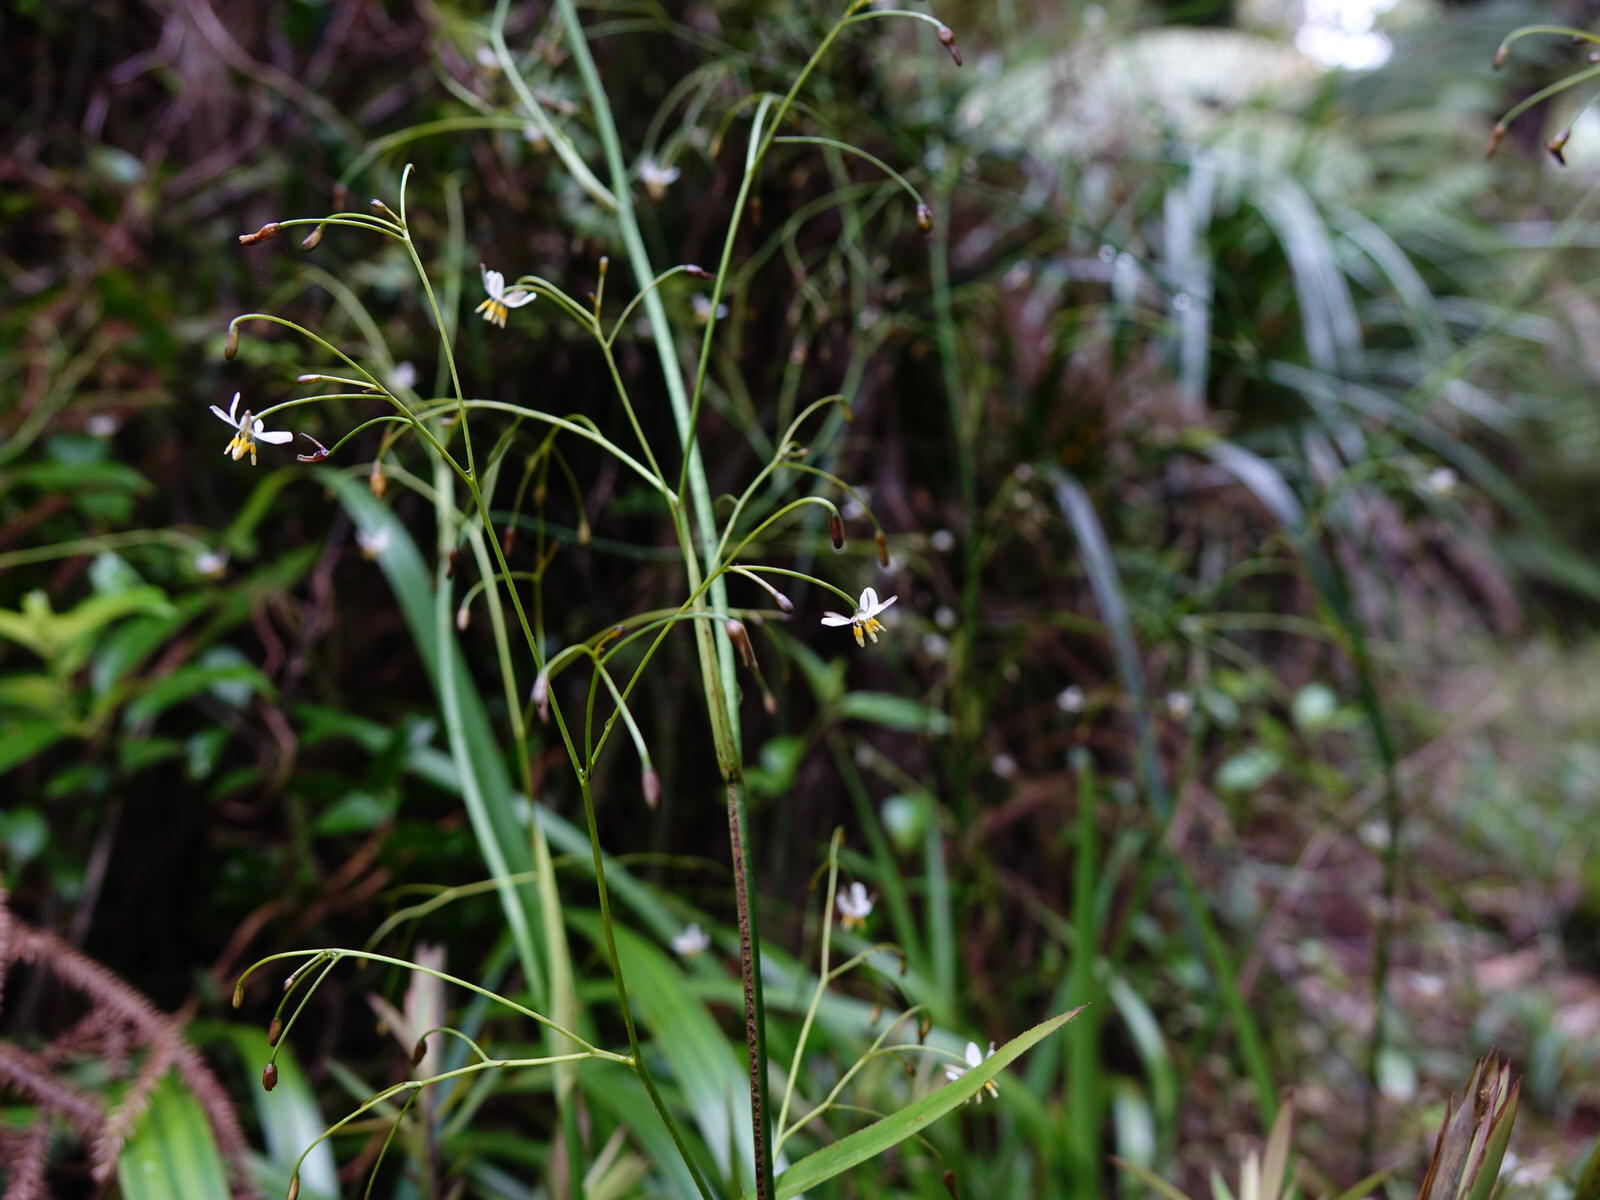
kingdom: Plantae
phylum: Tracheophyta
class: Liliopsida
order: Asparagales
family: Asphodelaceae
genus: Dianella
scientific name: Dianella nigra
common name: New zealand-blueberry
